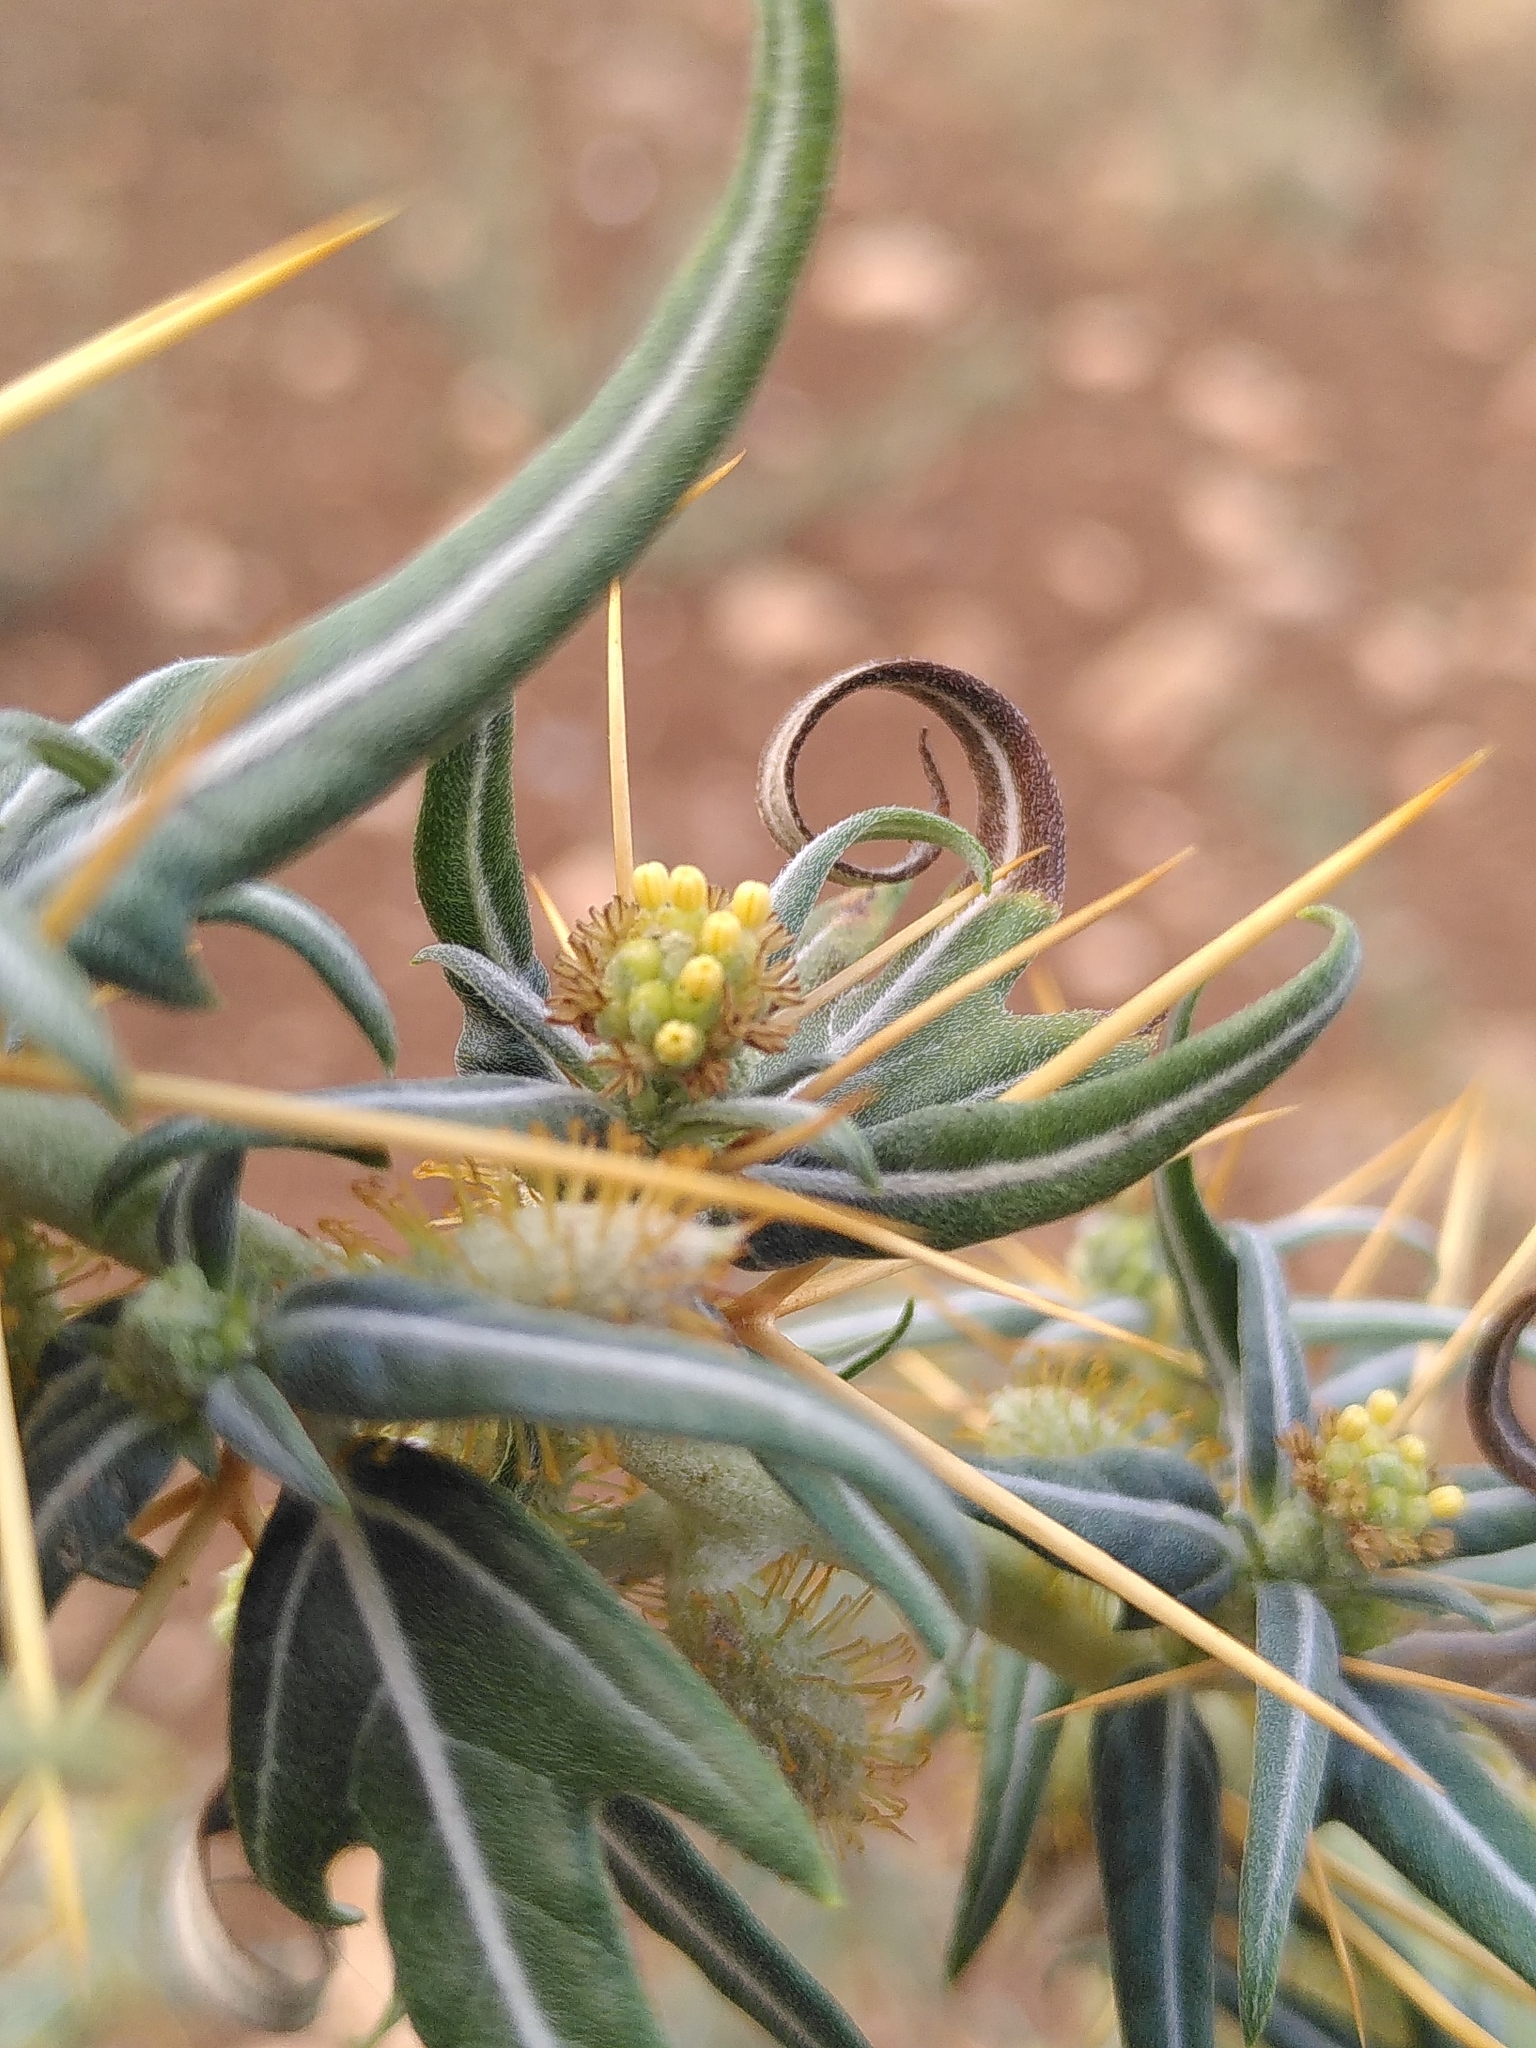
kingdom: Plantae
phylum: Tracheophyta
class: Magnoliopsida
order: Asterales
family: Asteraceae
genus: Xanthium
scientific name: Xanthium spinosum
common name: Spiny cocklebur
